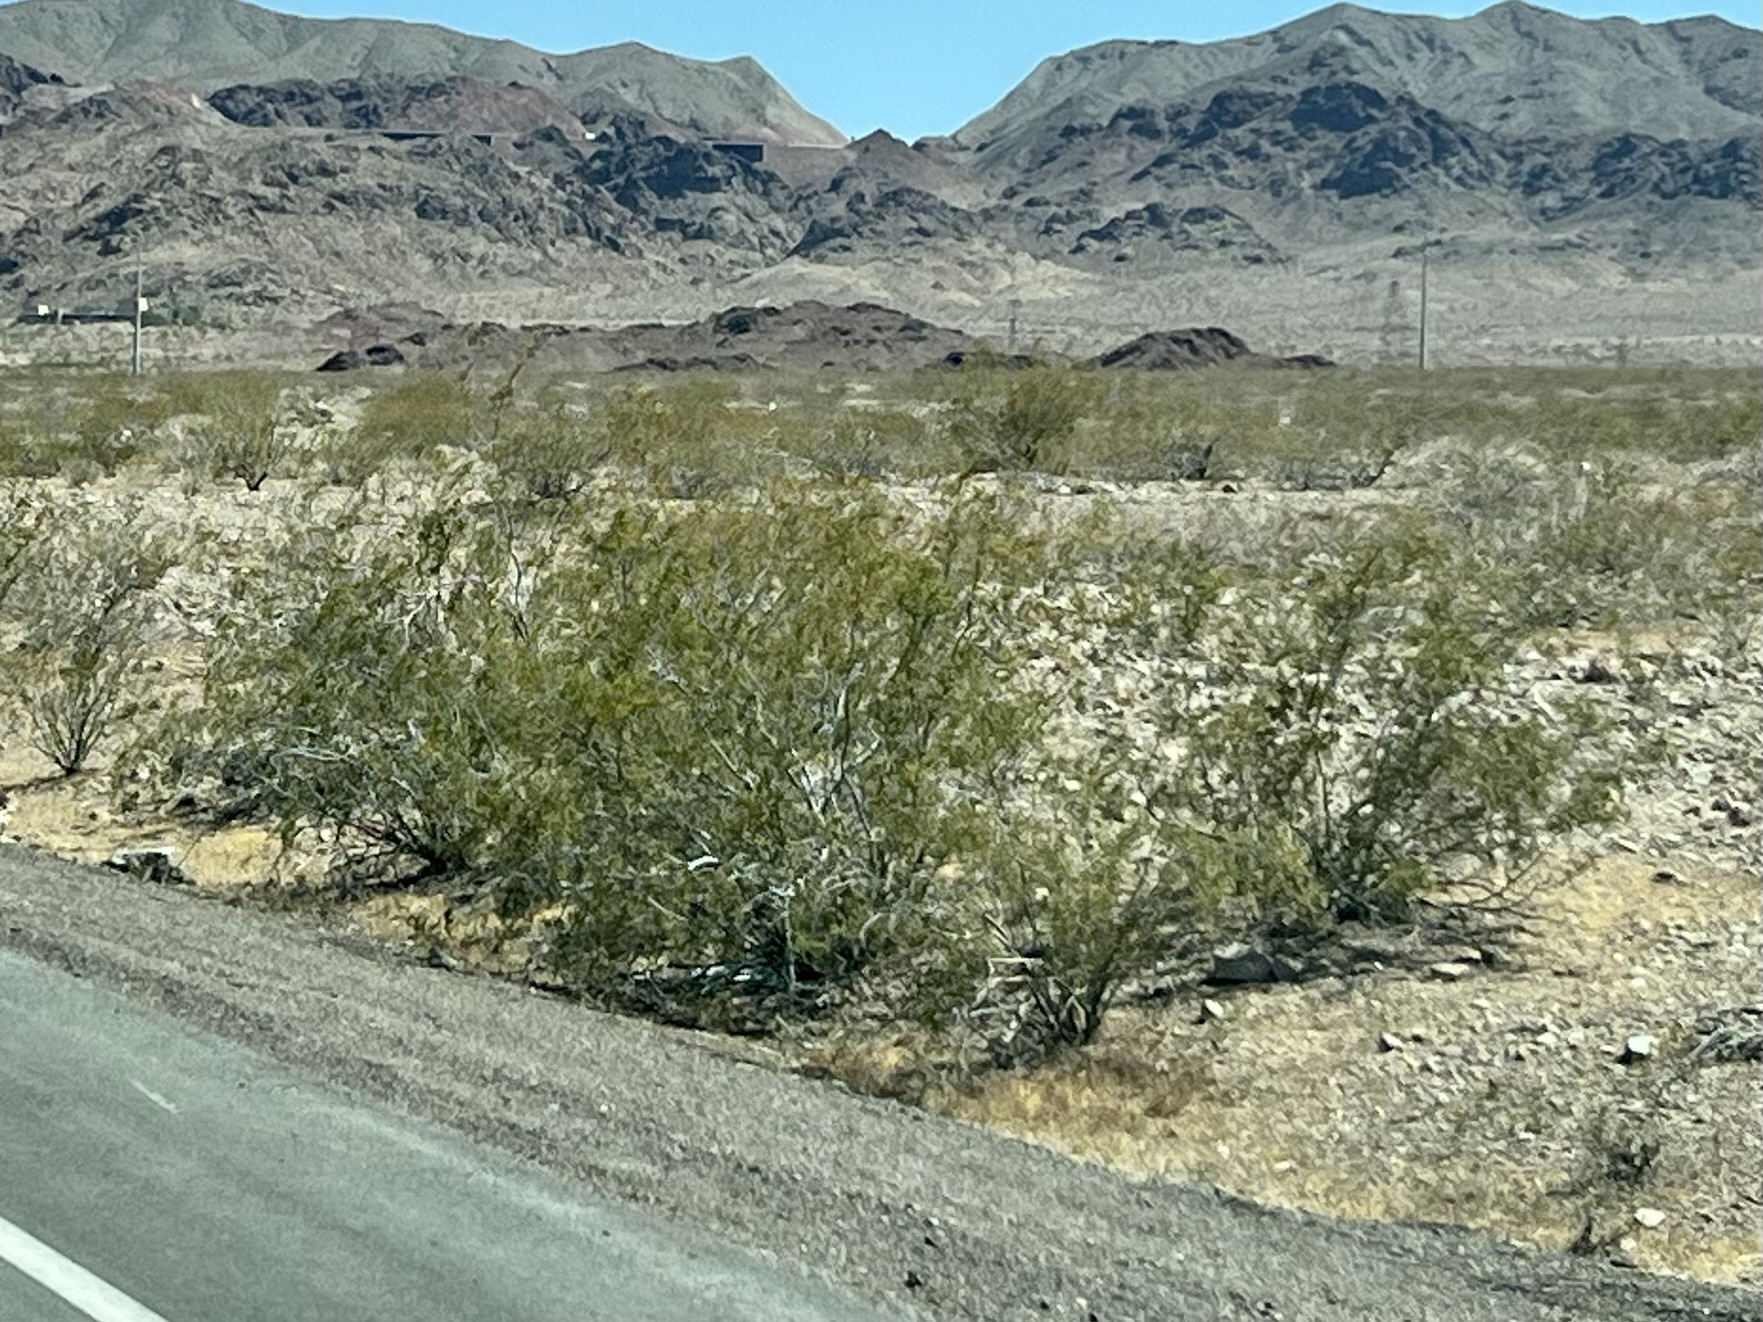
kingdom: Plantae
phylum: Tracheophyta
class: Magnoliopsida
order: Zygophyllales
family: Zygophyllaceae
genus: Larrea
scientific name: Larrea tridentata
